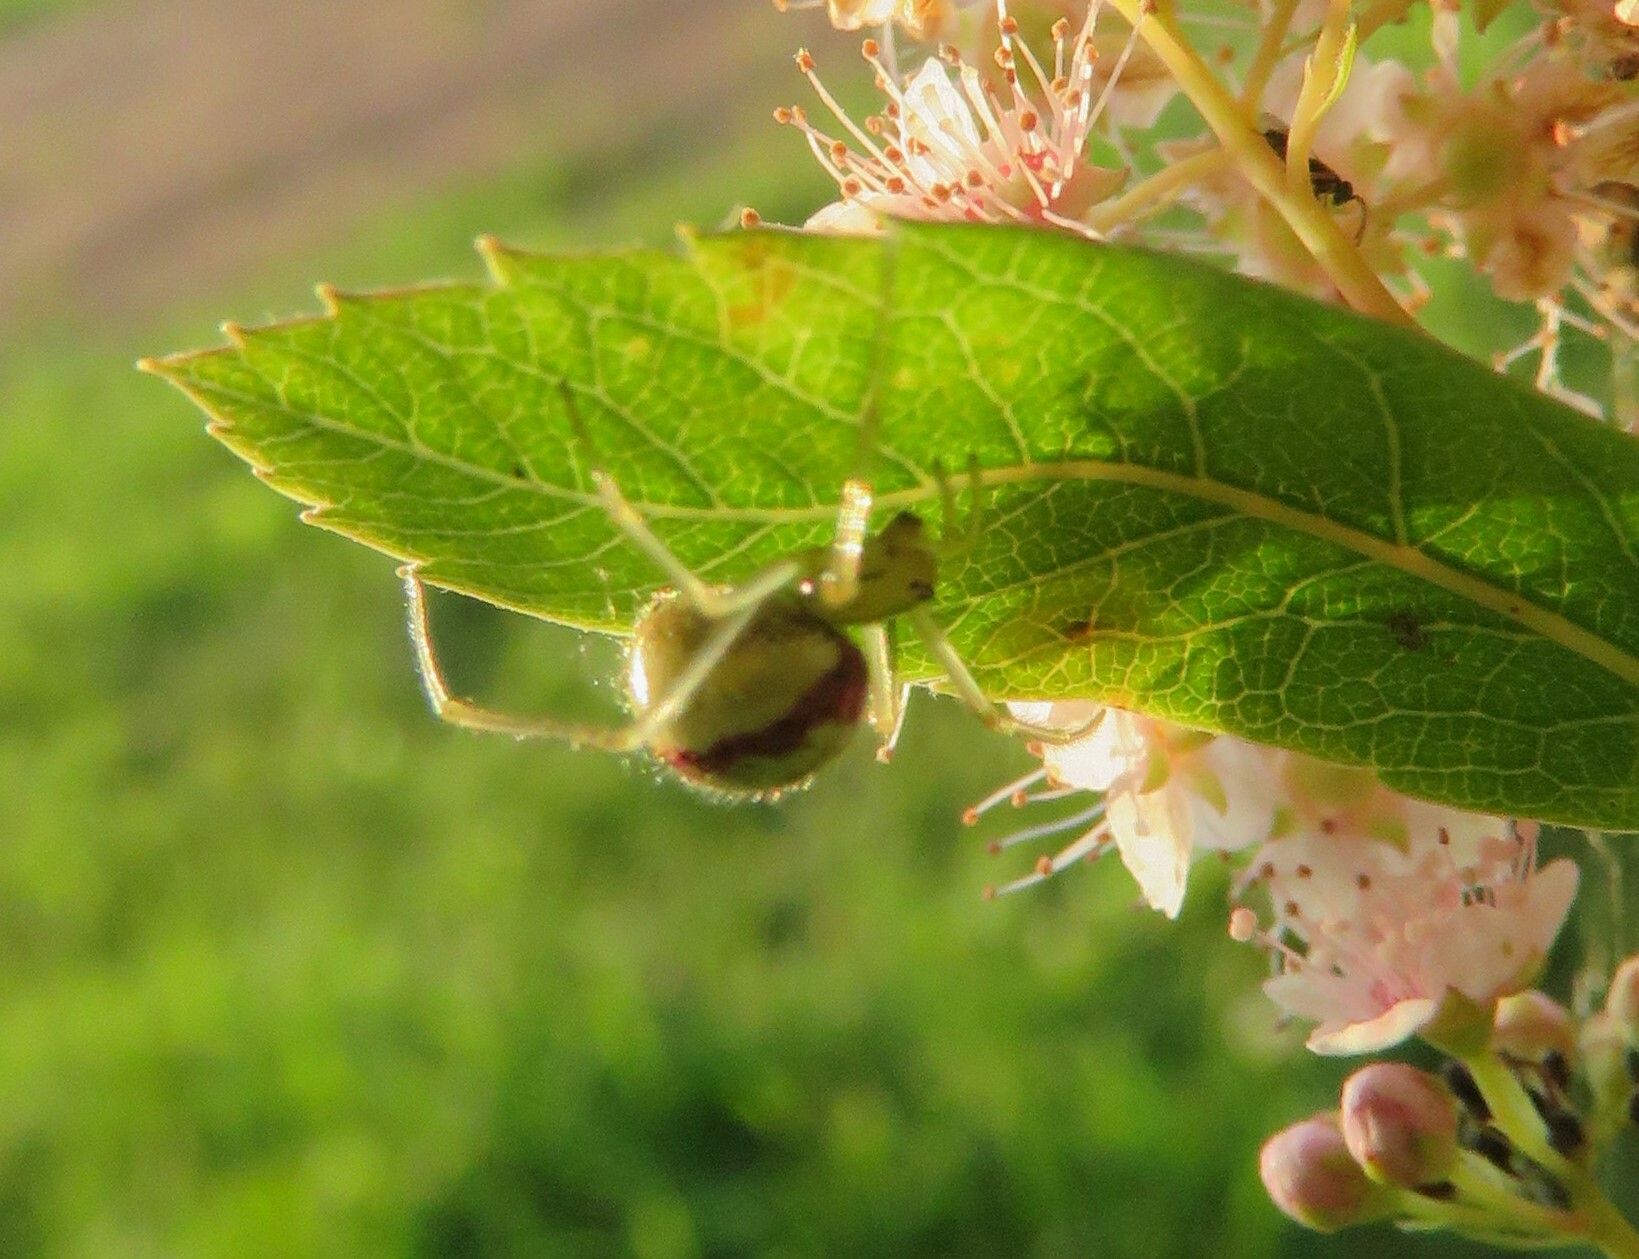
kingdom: Animalia
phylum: Arthropoda
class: Arachnida
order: Araneae
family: Theridiidae
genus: Enoplognatha
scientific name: Enoplognatha ovata
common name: Common candy-striped spider
